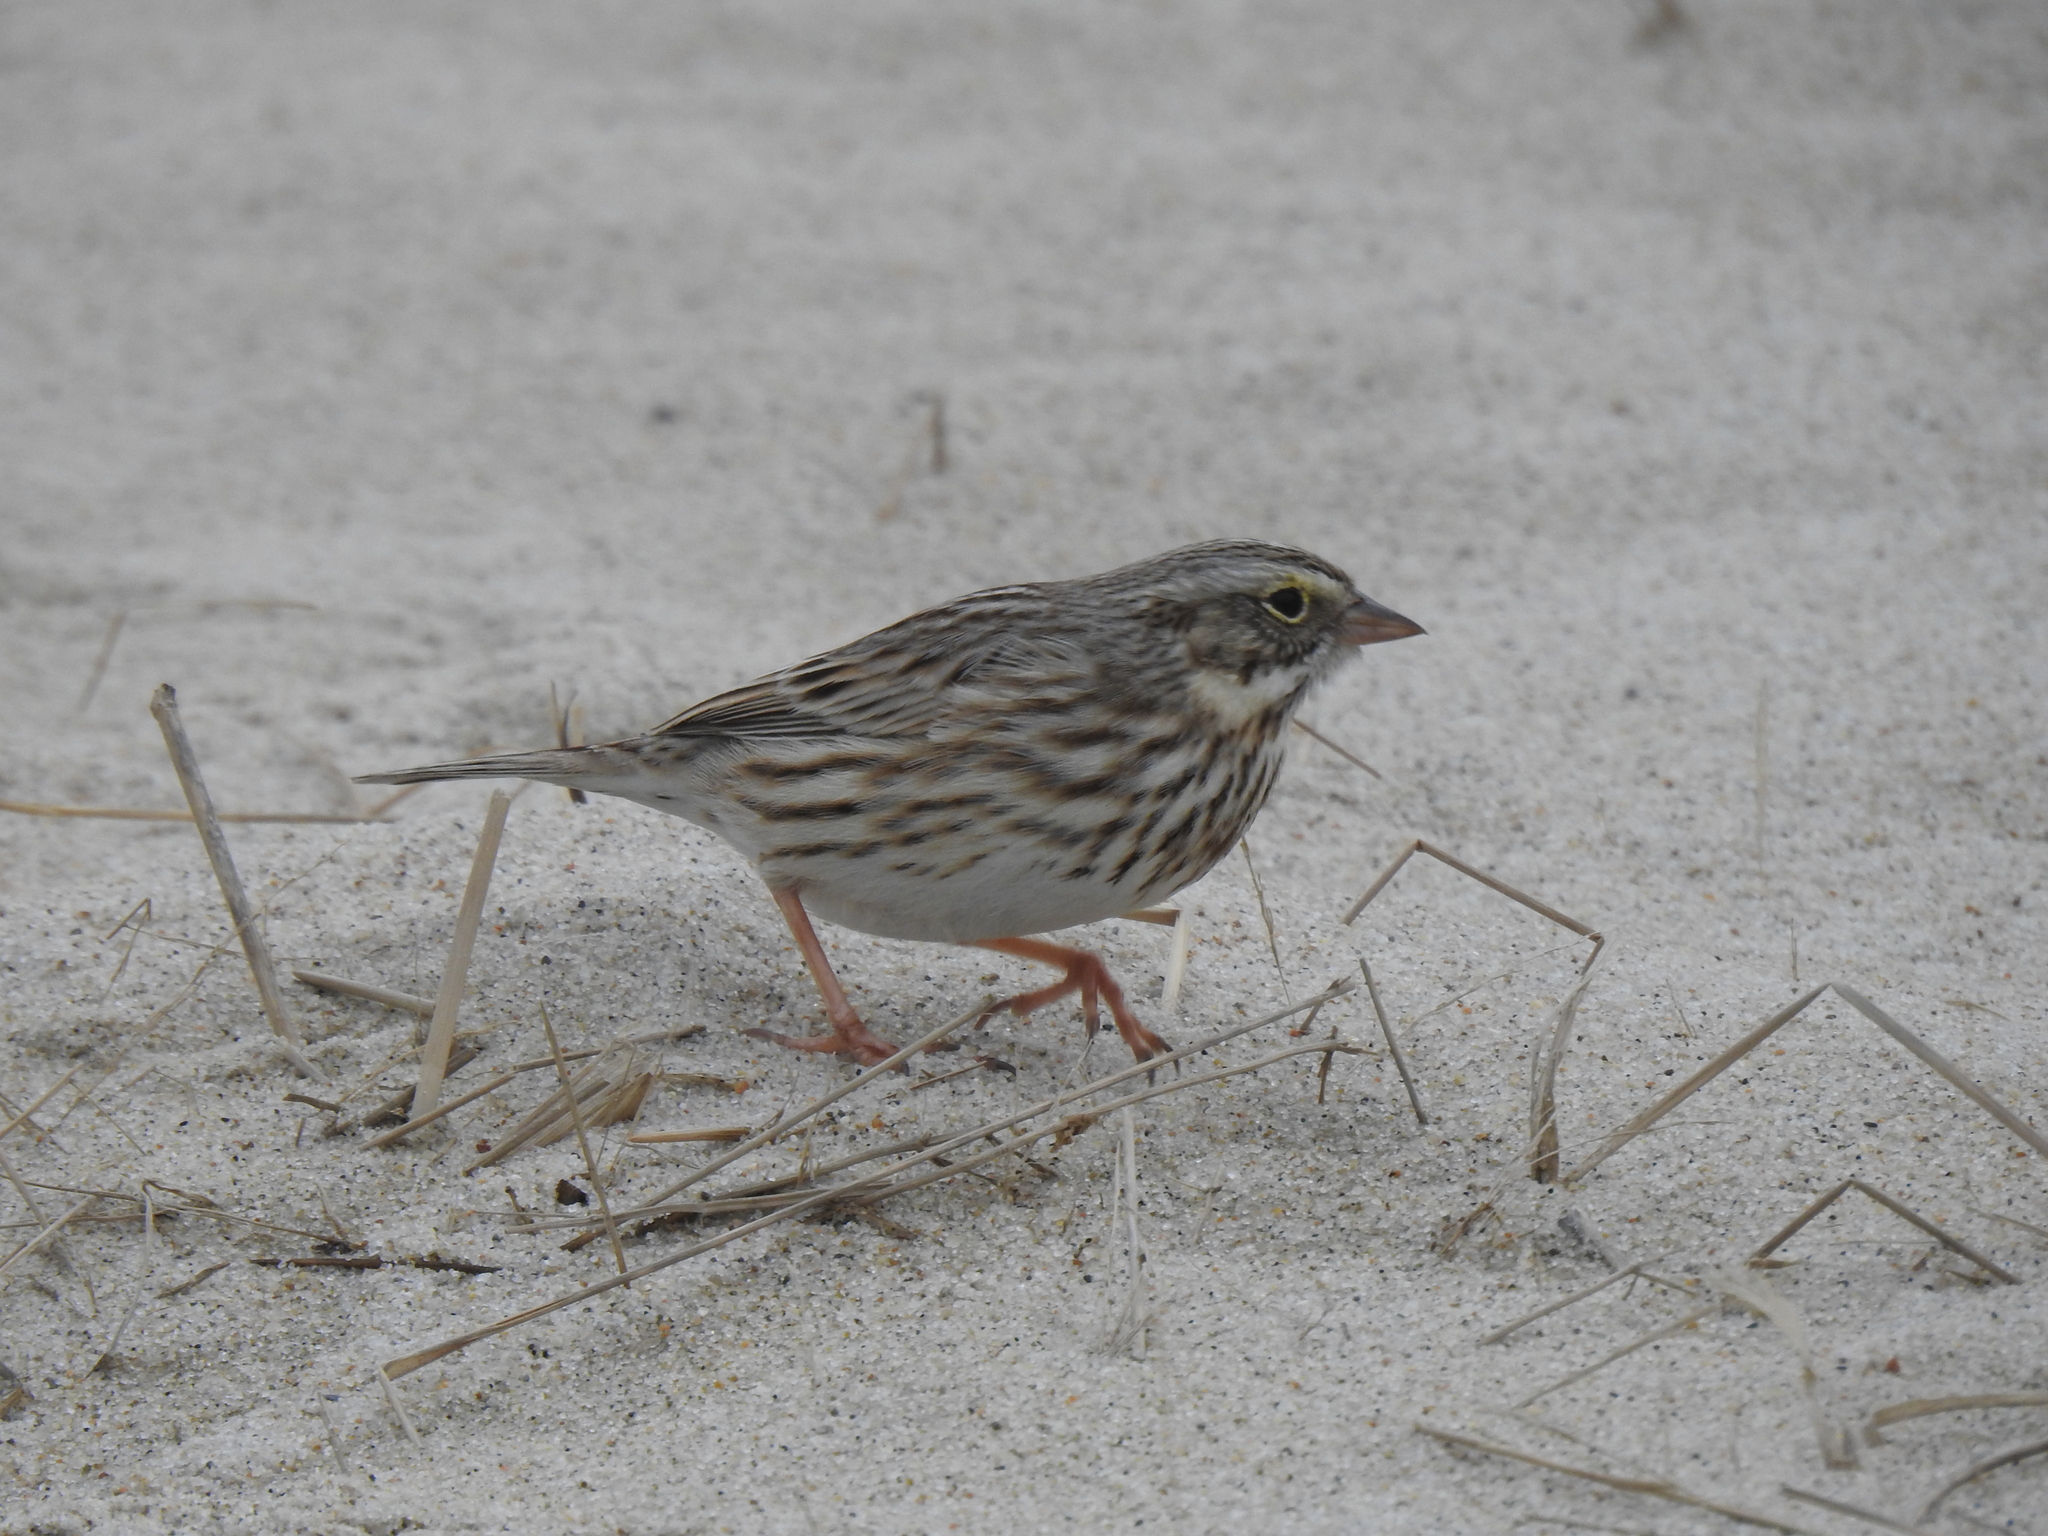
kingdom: Animalia
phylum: Chordata
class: Aves
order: Passeriformes
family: Passerellidae
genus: Passerculus
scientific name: Passerculus sandwichensis
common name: Savannah sparrow
